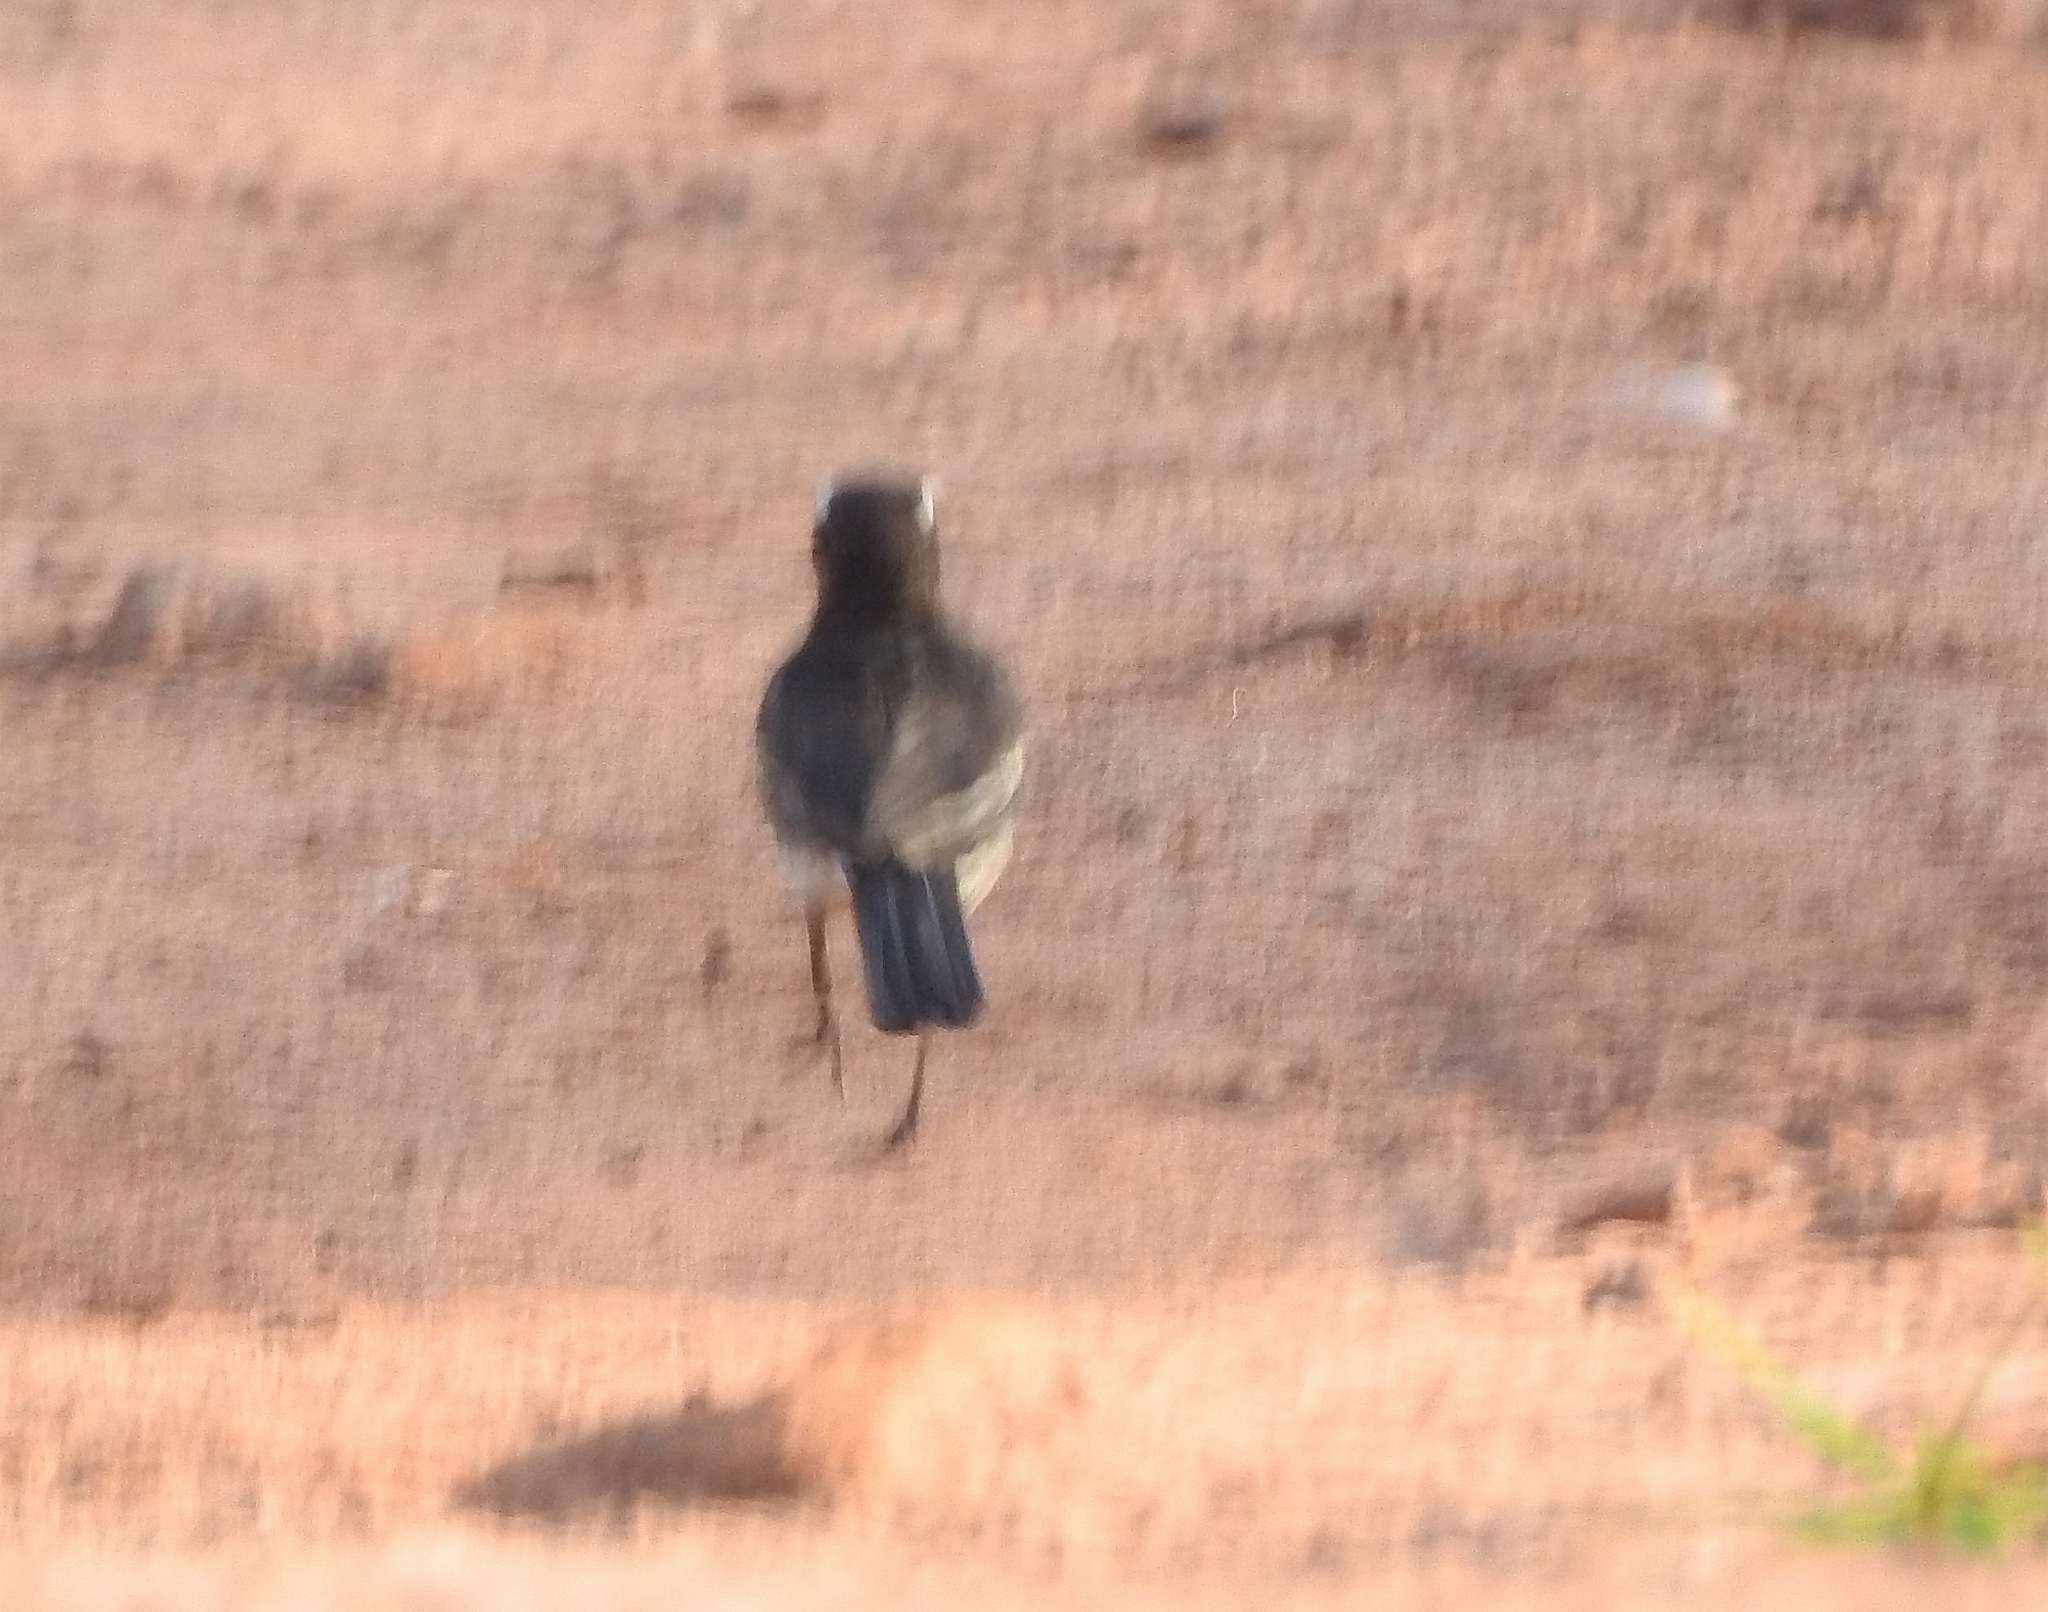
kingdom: Animalia
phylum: Chordata
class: Aves
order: Passeriformes
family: Motacillidae
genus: Motacilla
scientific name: Motacilla maderaspatensis
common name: White-browed wagtail
